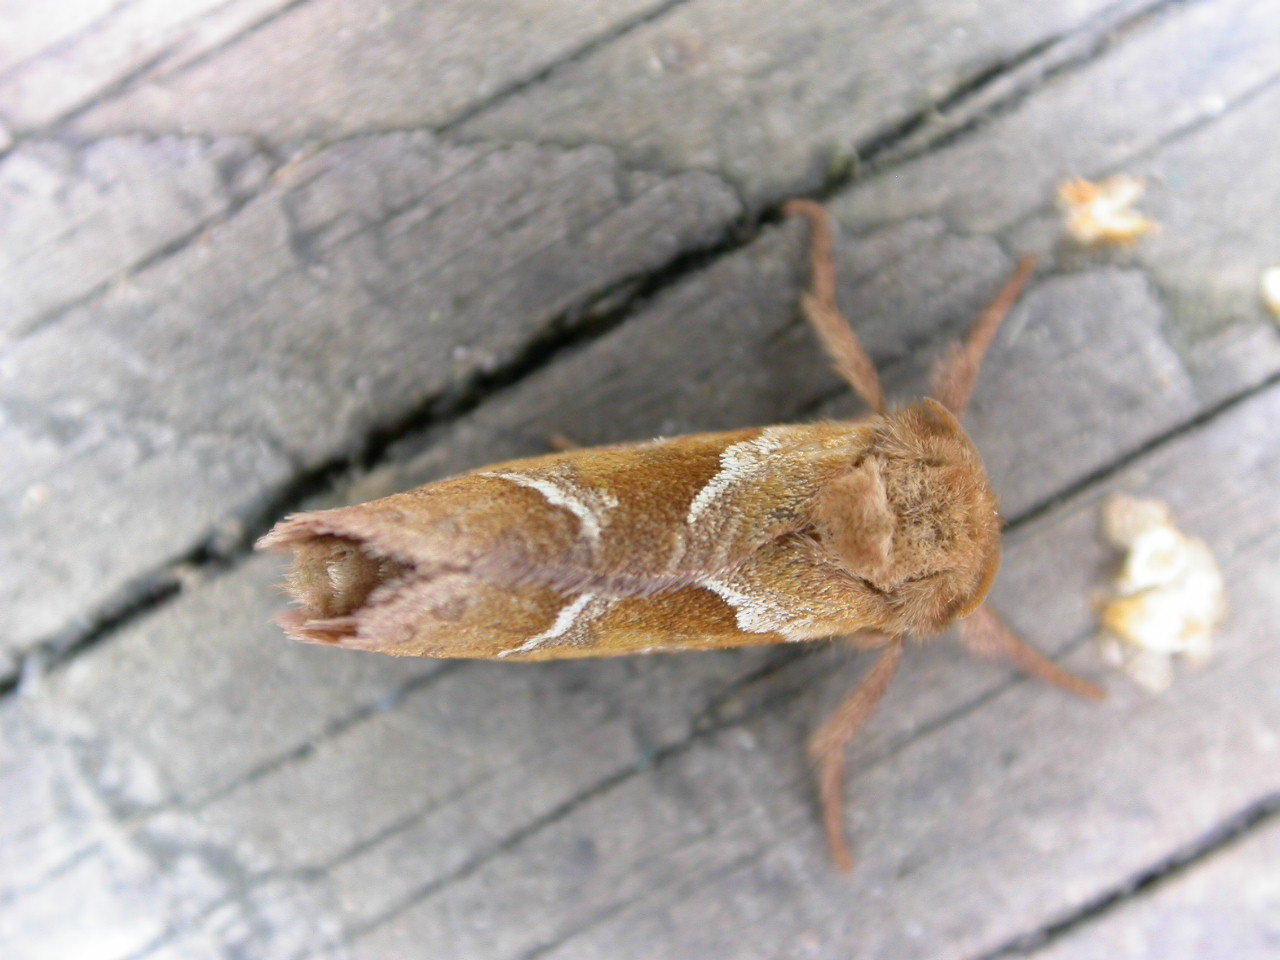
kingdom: Animalia
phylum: Arthropoda
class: Insecta
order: Lepidoptera
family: Hepialidae
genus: Triodia
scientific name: Triodia sylvina
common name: Orange swift
